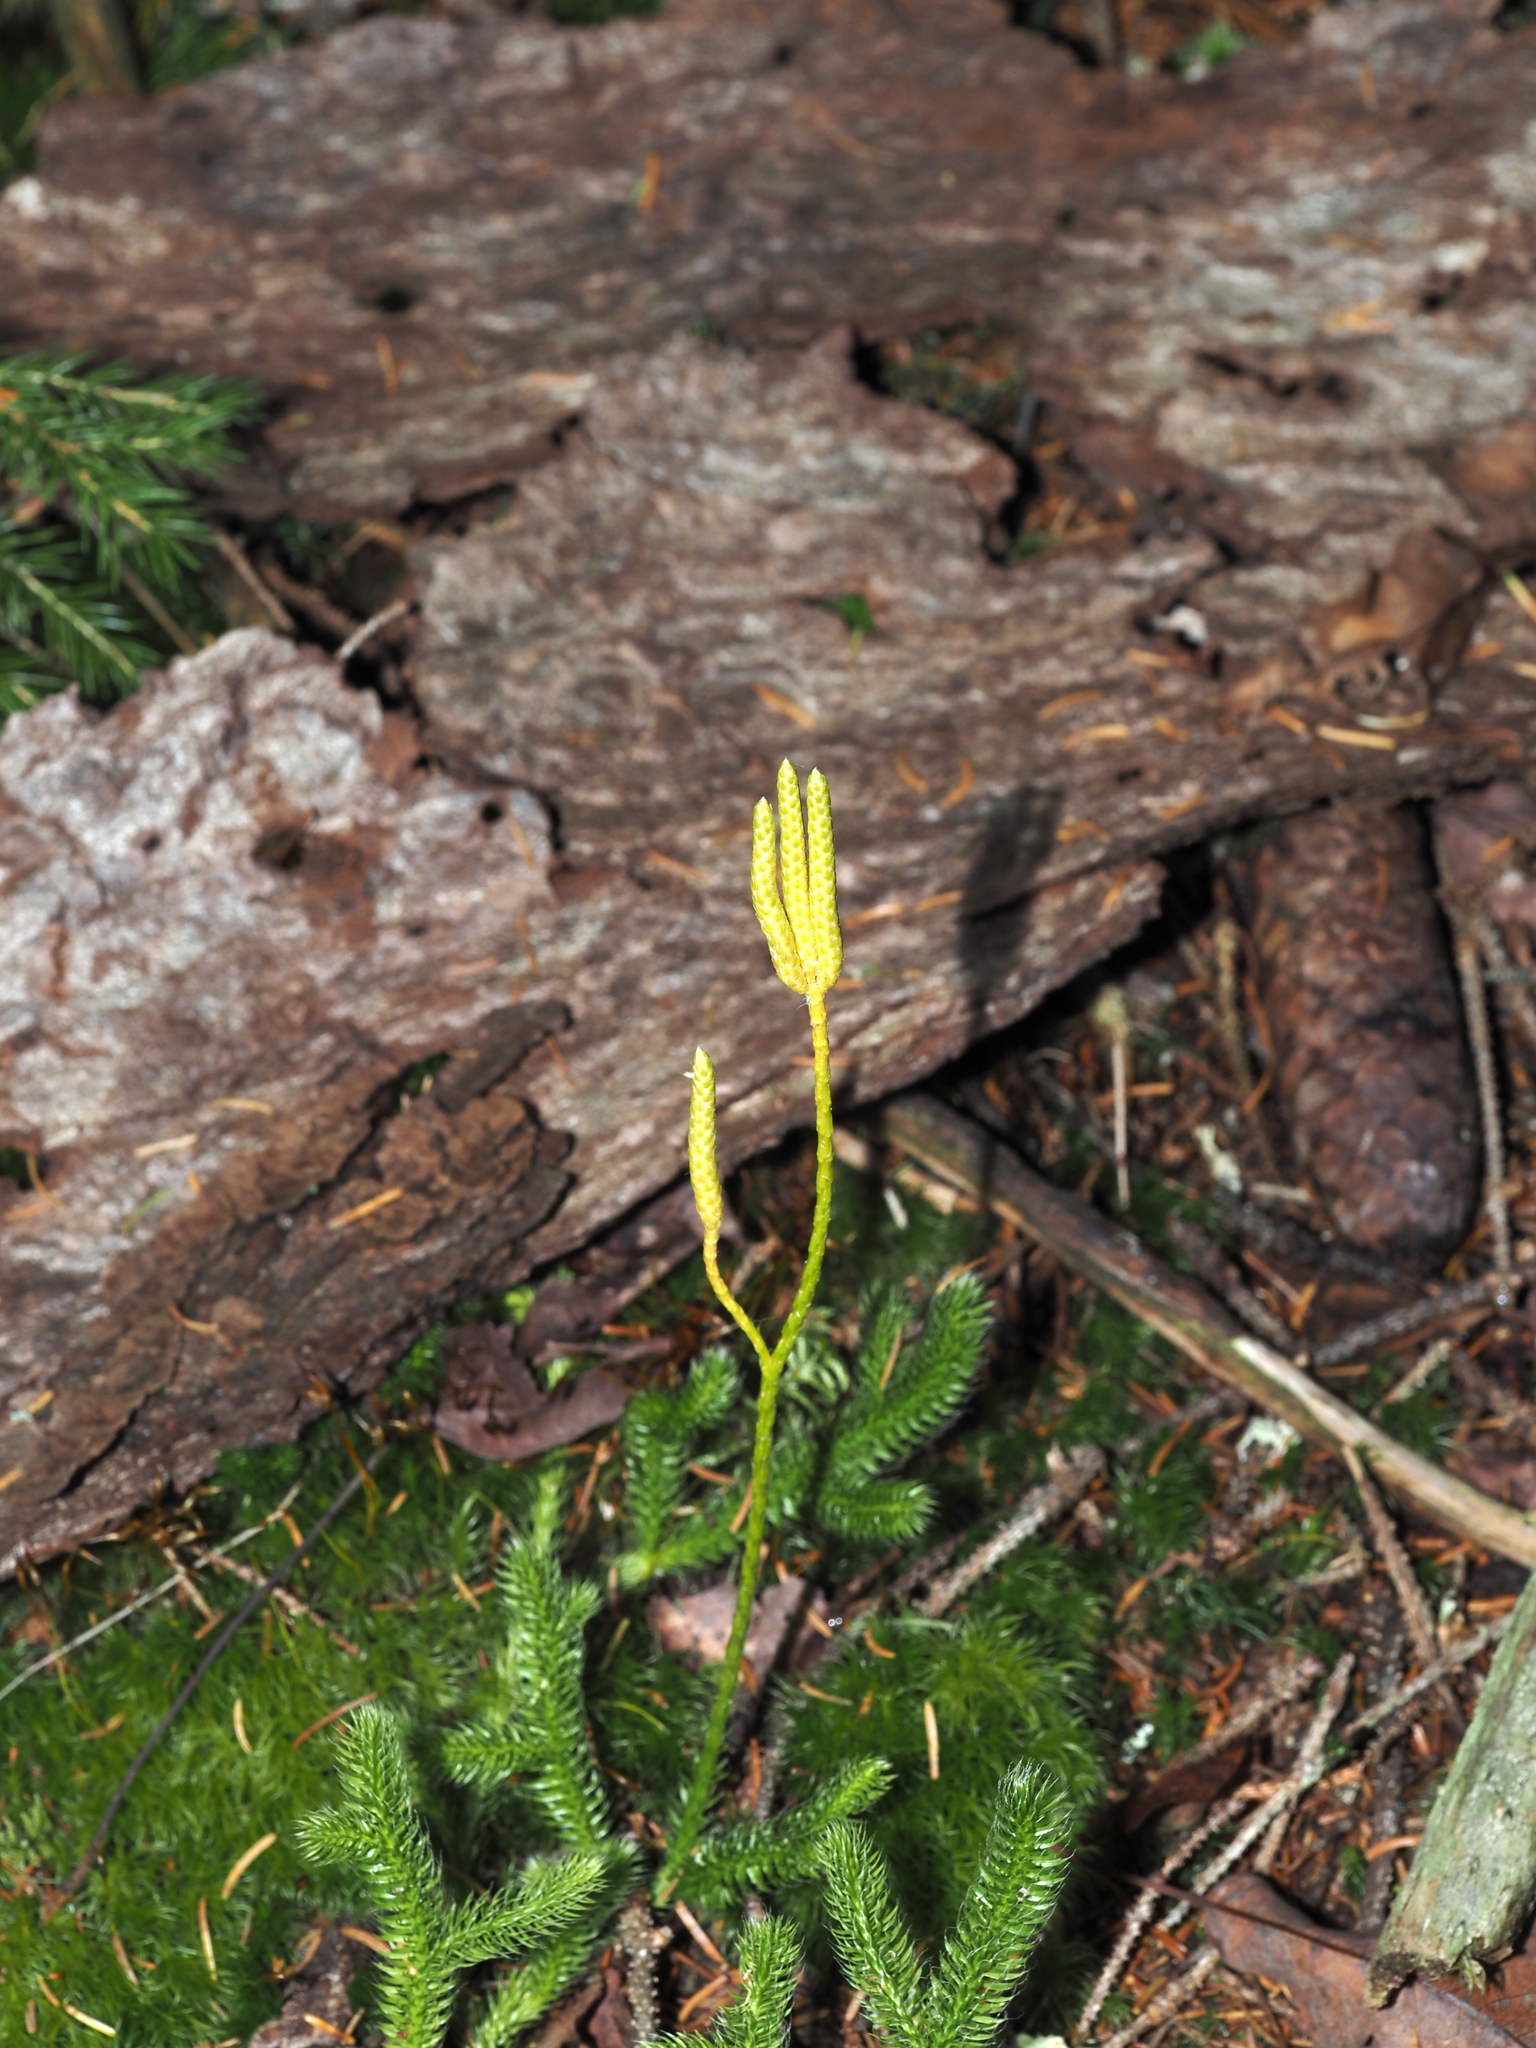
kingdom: Plantae
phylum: Tracheophyta
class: Lycopodiopsida
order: Lycopodiales
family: Lycopodiaceae
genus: Lycopodium
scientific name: Lycopodium clavatum
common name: Stag's-horn clubmoss
